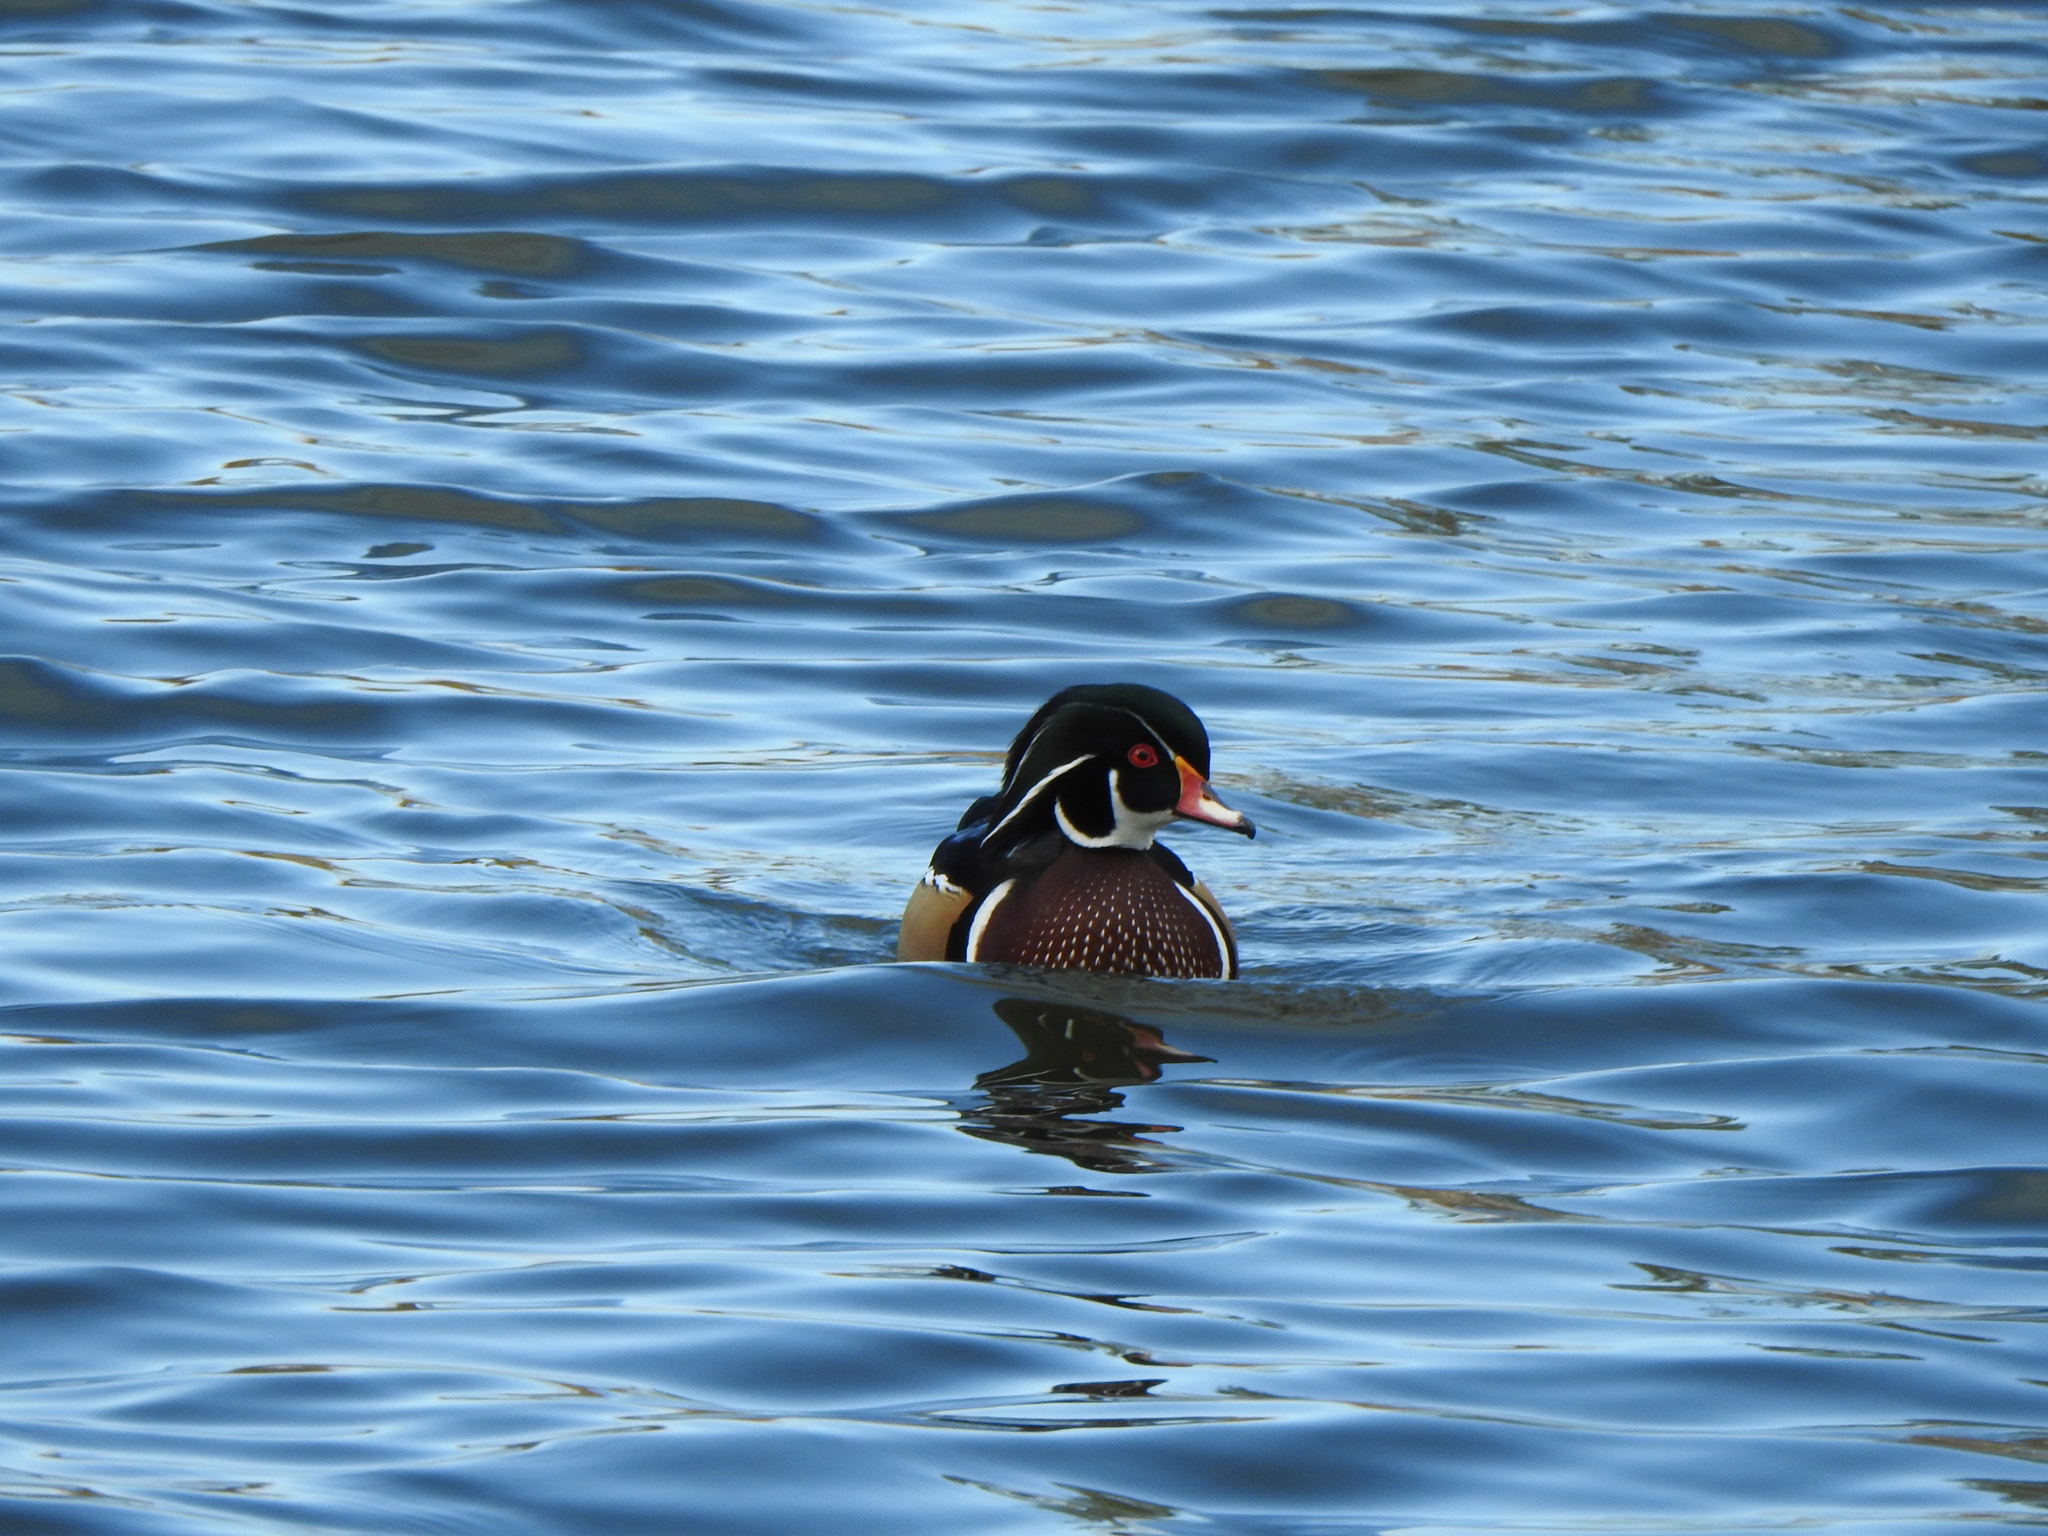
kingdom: Animalia
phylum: Chordata
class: Aves
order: Anseriformes
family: Anatidae
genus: Aix
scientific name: Aix sponsa
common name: Wood duck
